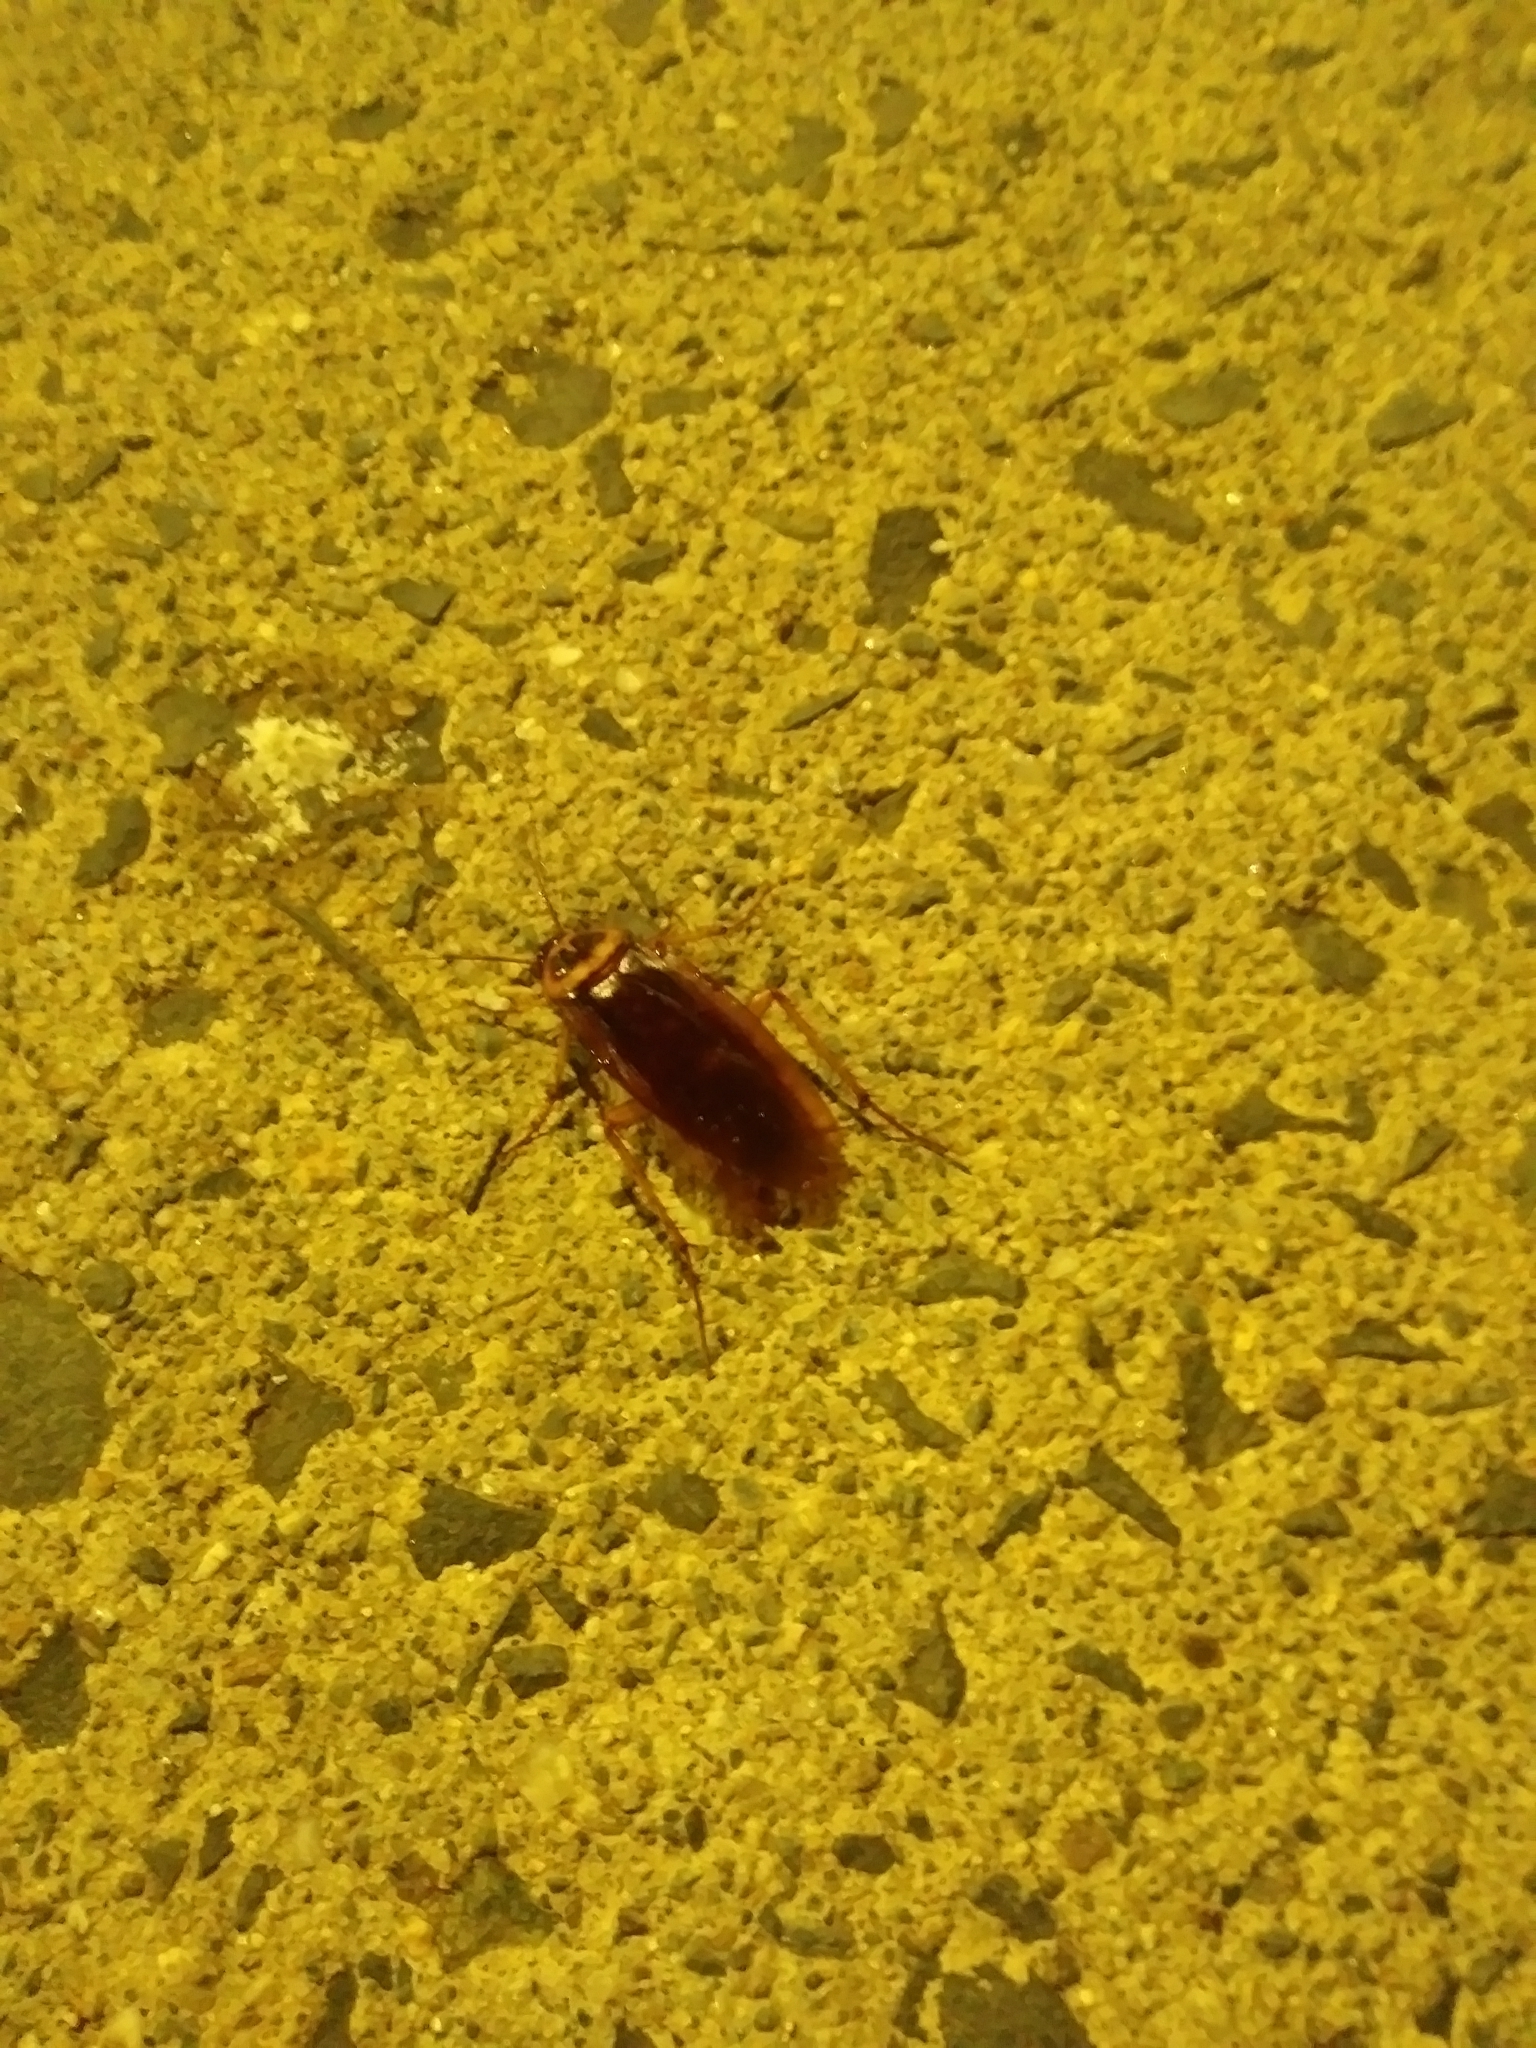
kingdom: Animalia
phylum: Arthropoda
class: Insecta
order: Blattodea
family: Blattidae
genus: Periplaneta
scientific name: Periplaneta americana
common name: American cockroach
